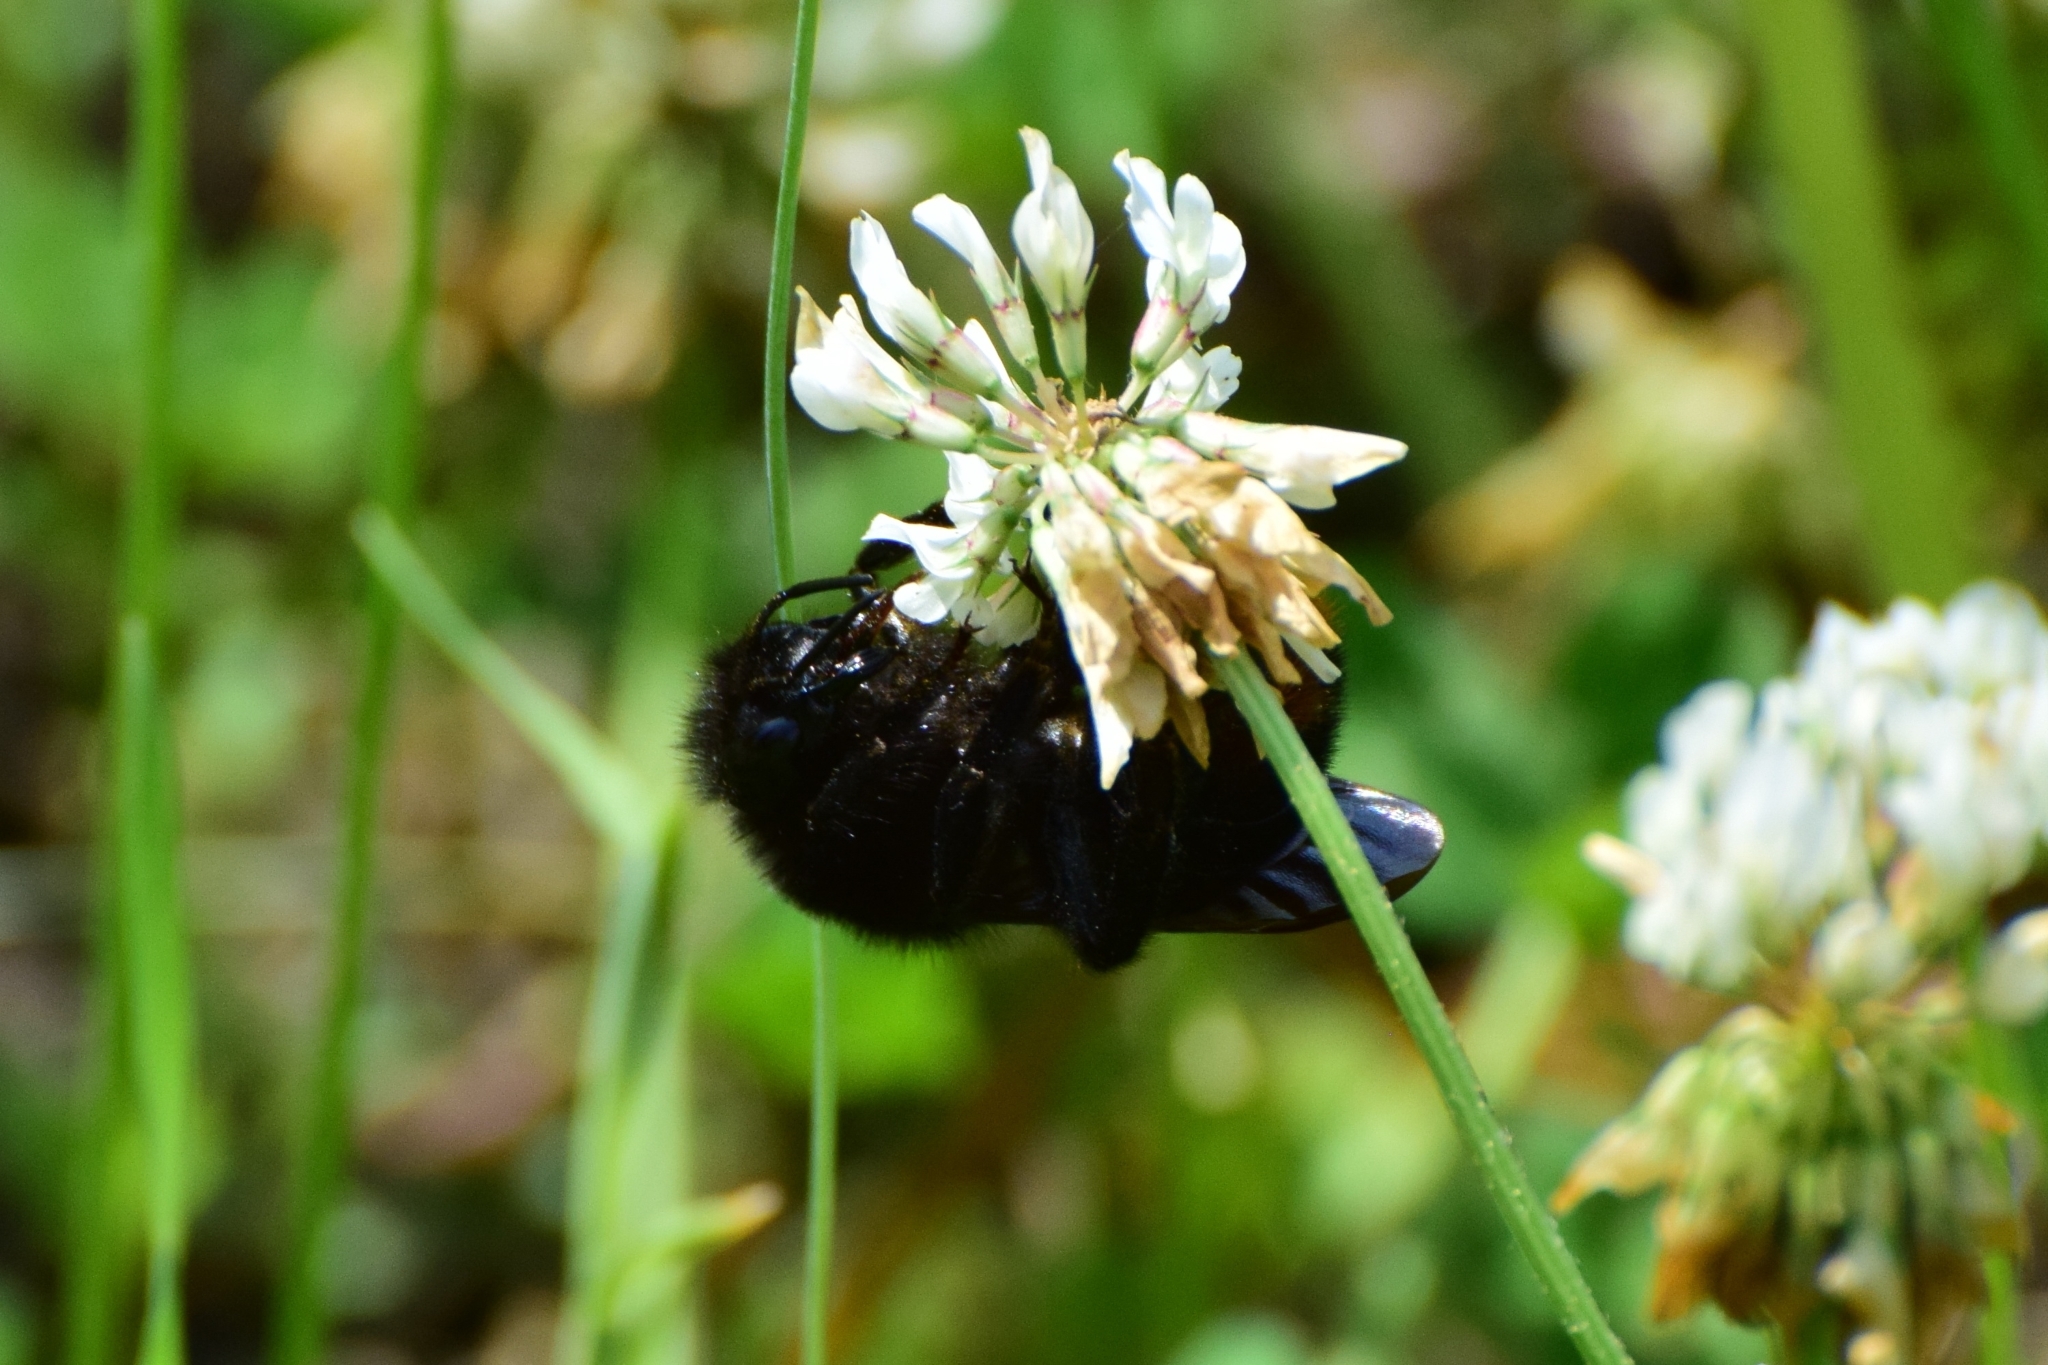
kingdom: Animalia
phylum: Arthropoda
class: Insecta
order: Hymenoptera
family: Apidae
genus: Bombus
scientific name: Bombus rupestris
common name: Hill cuckoo-bee
